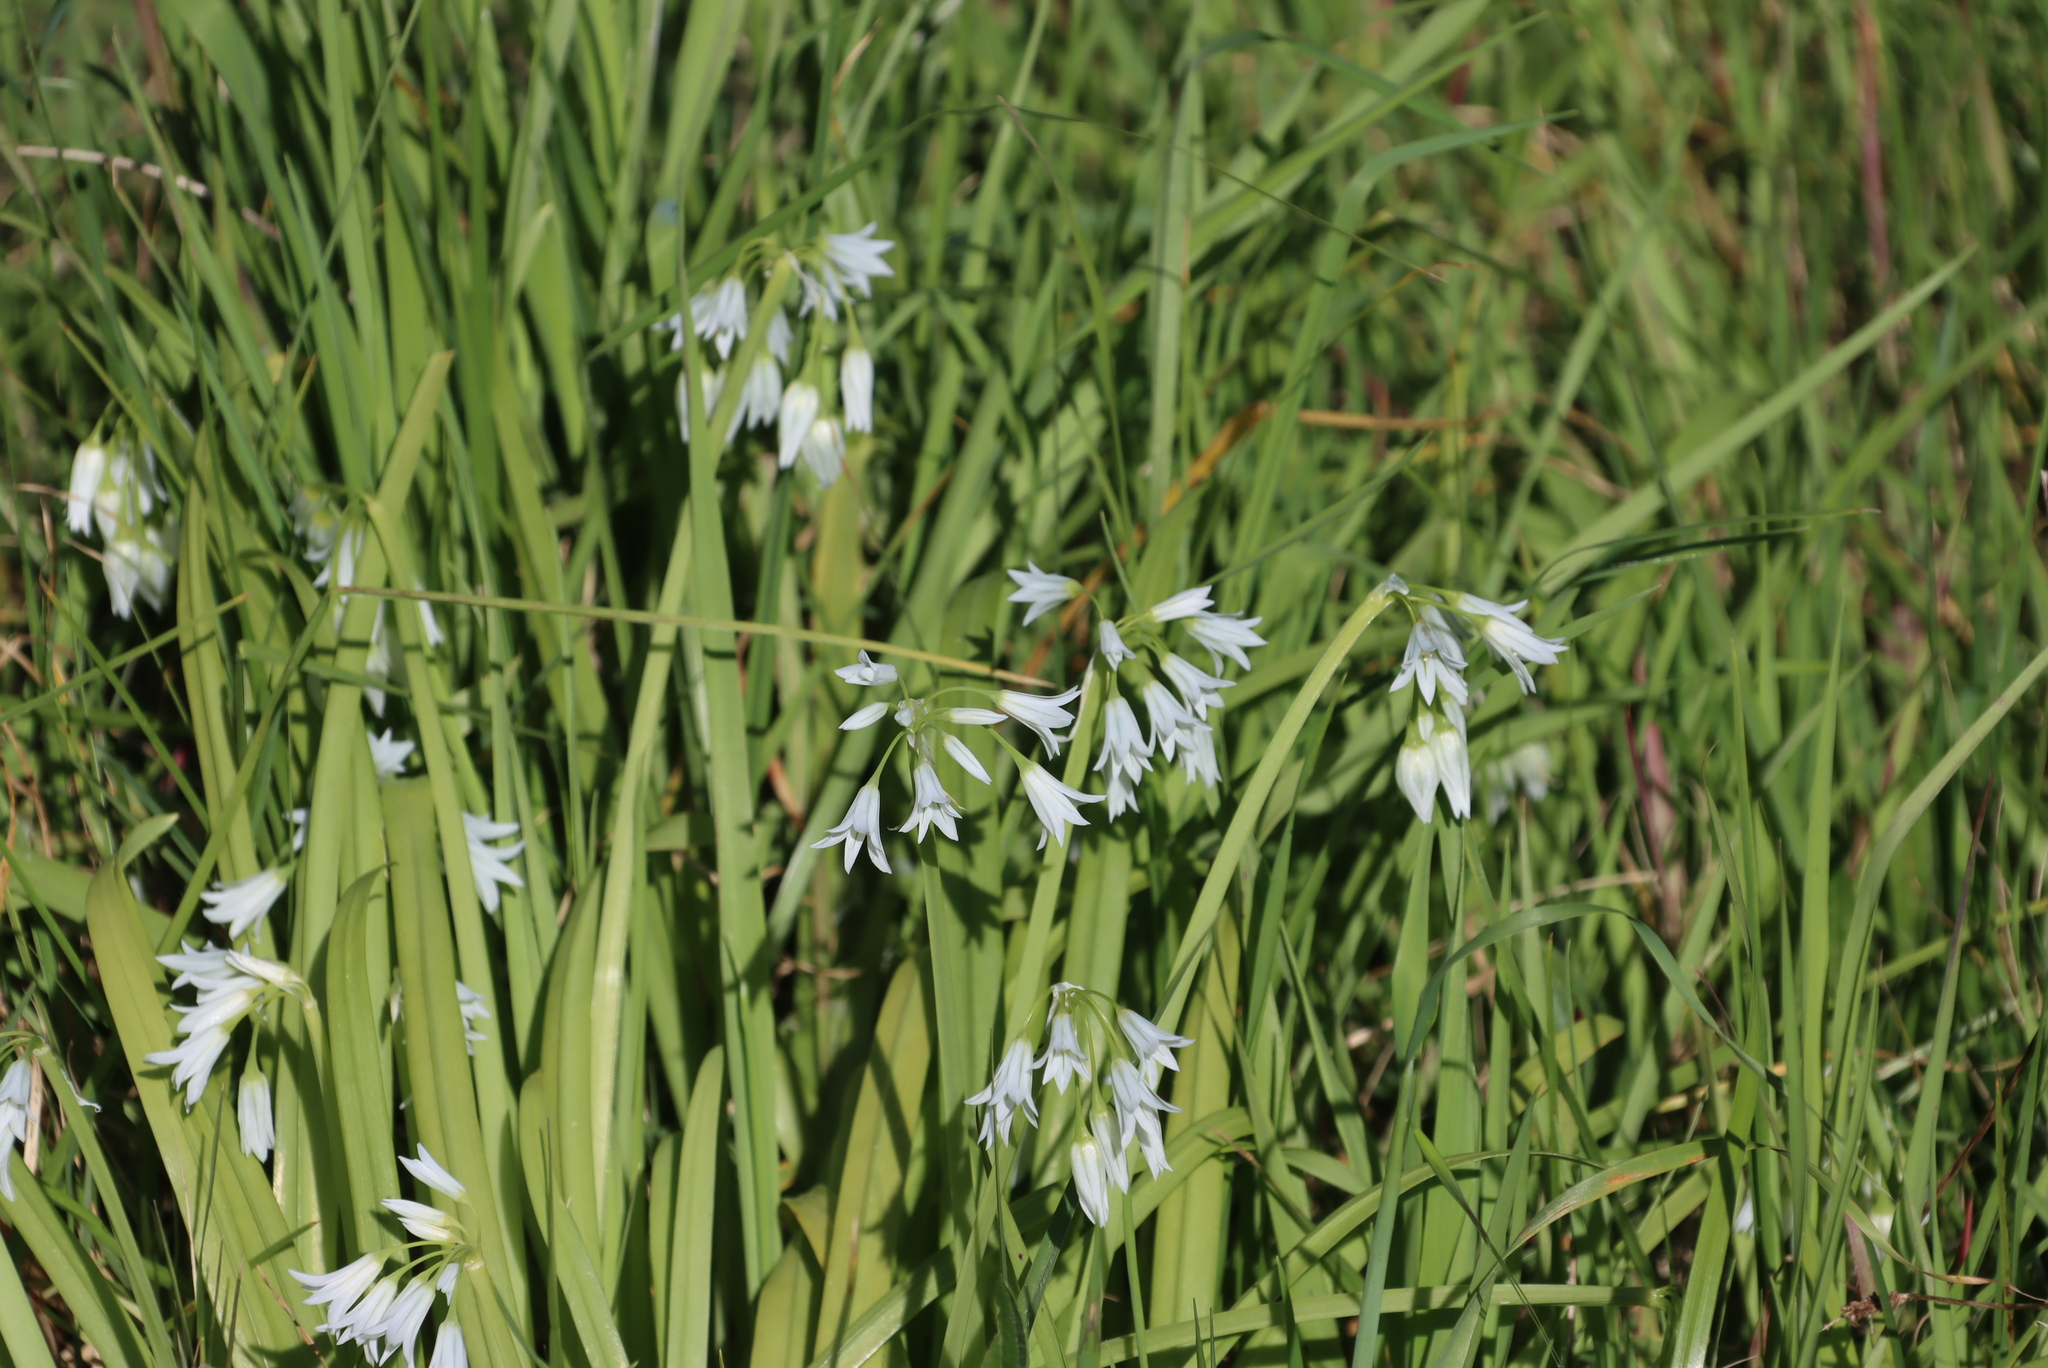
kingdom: Plantae
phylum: Tracheophyta
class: Liliopsida
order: Asparagales
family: Amaryllidaceae
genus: Allium
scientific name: Allium triquetrum
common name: Three-cornered garlic
